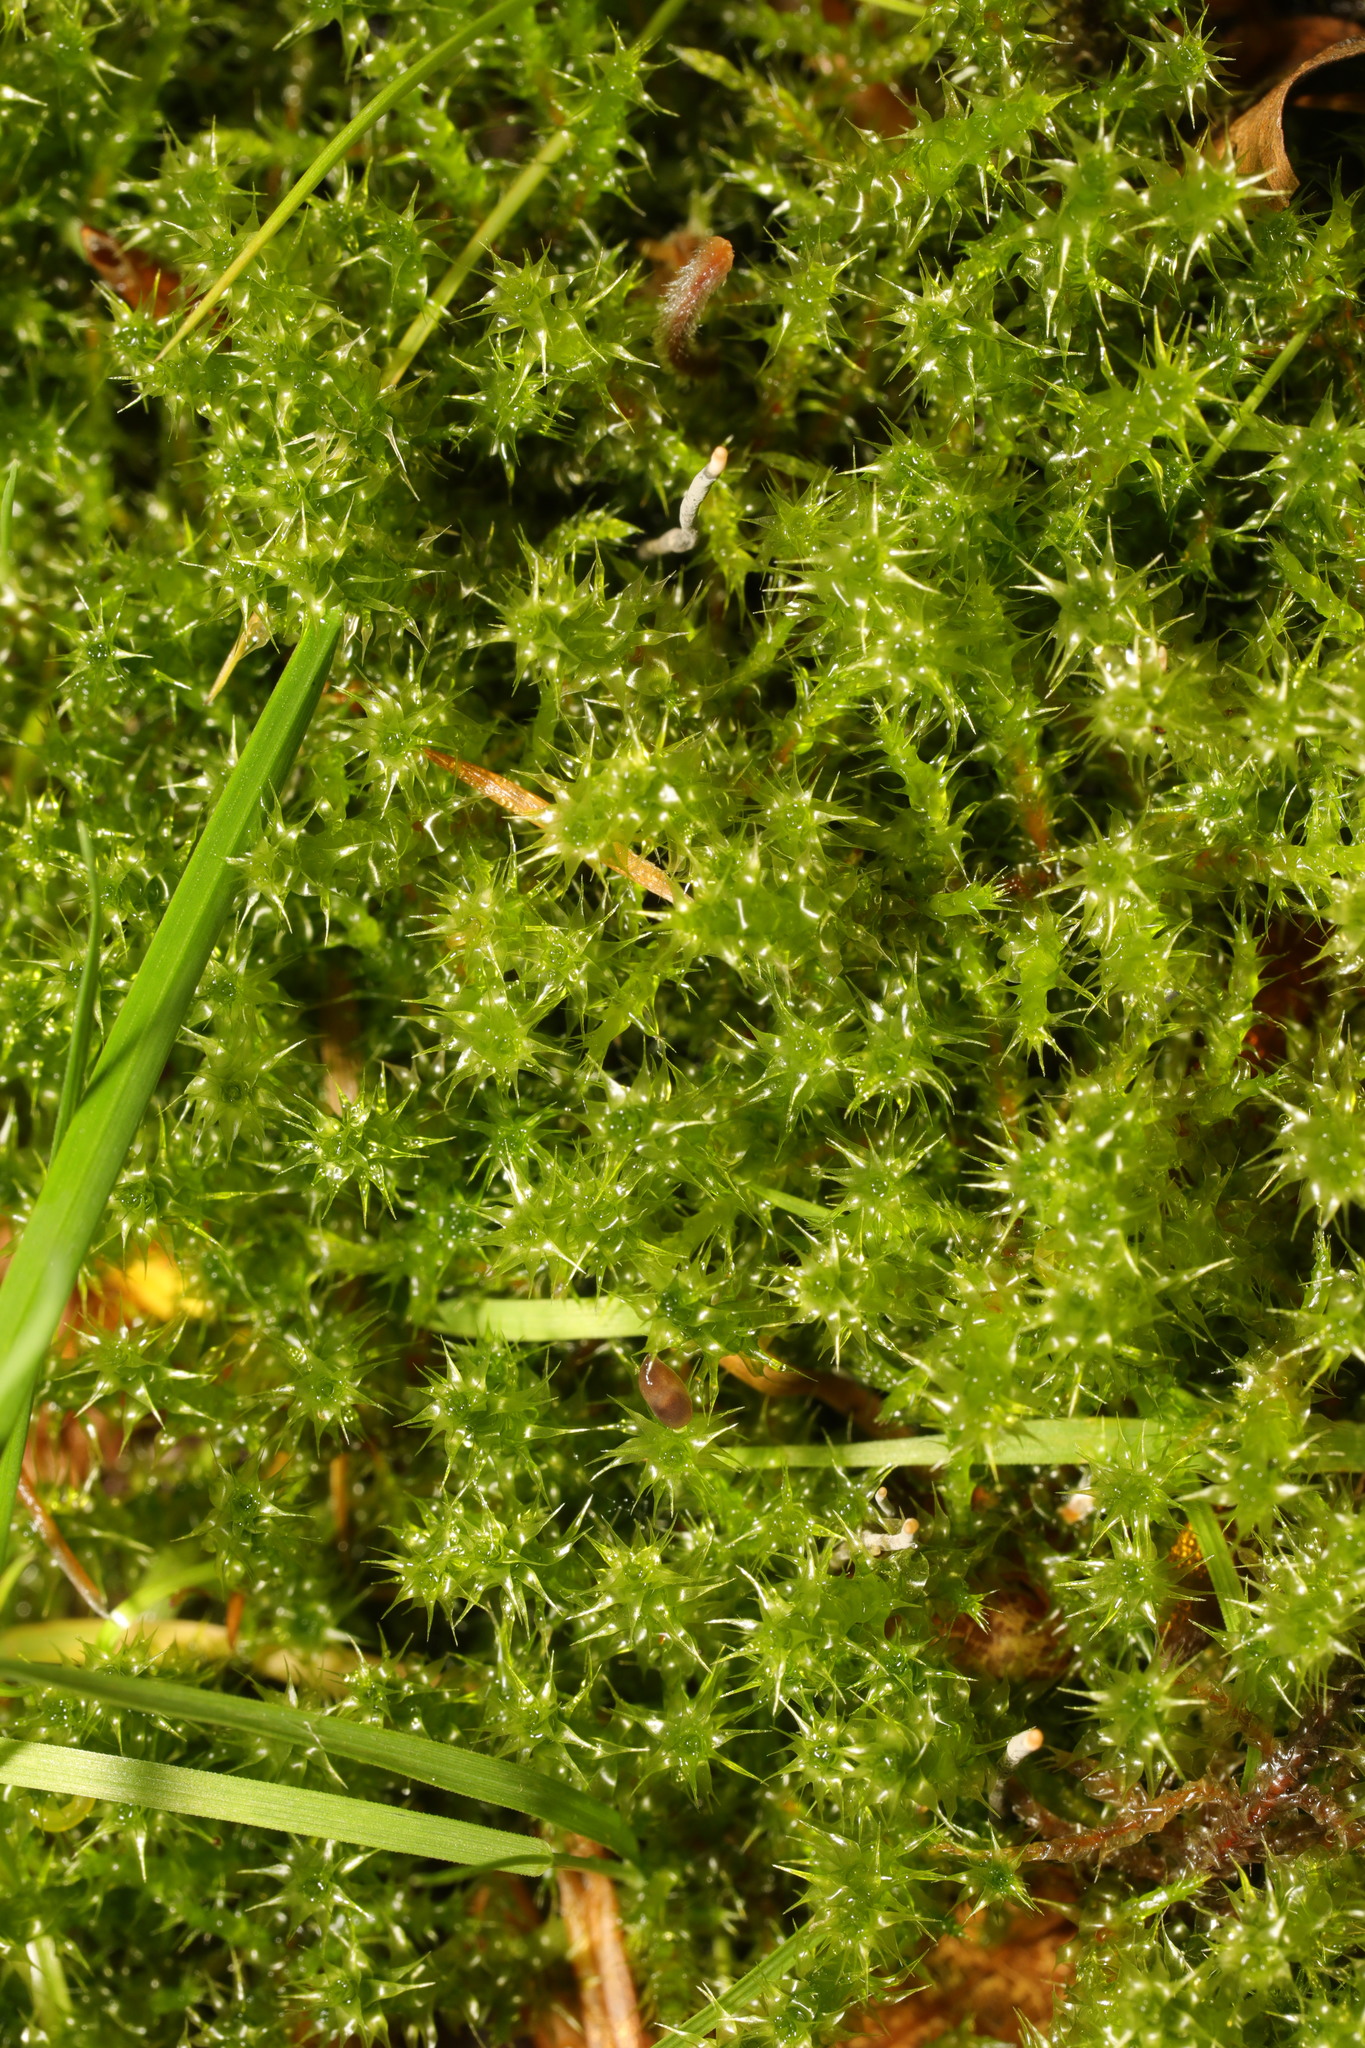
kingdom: Plantae
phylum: Bryophyta
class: Bryopsida
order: Hypnales
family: Hylocomiaceae
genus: Rhytidiadelphus
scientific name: Rhytidiadelphus squarrosus
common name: Springy turf-moss
